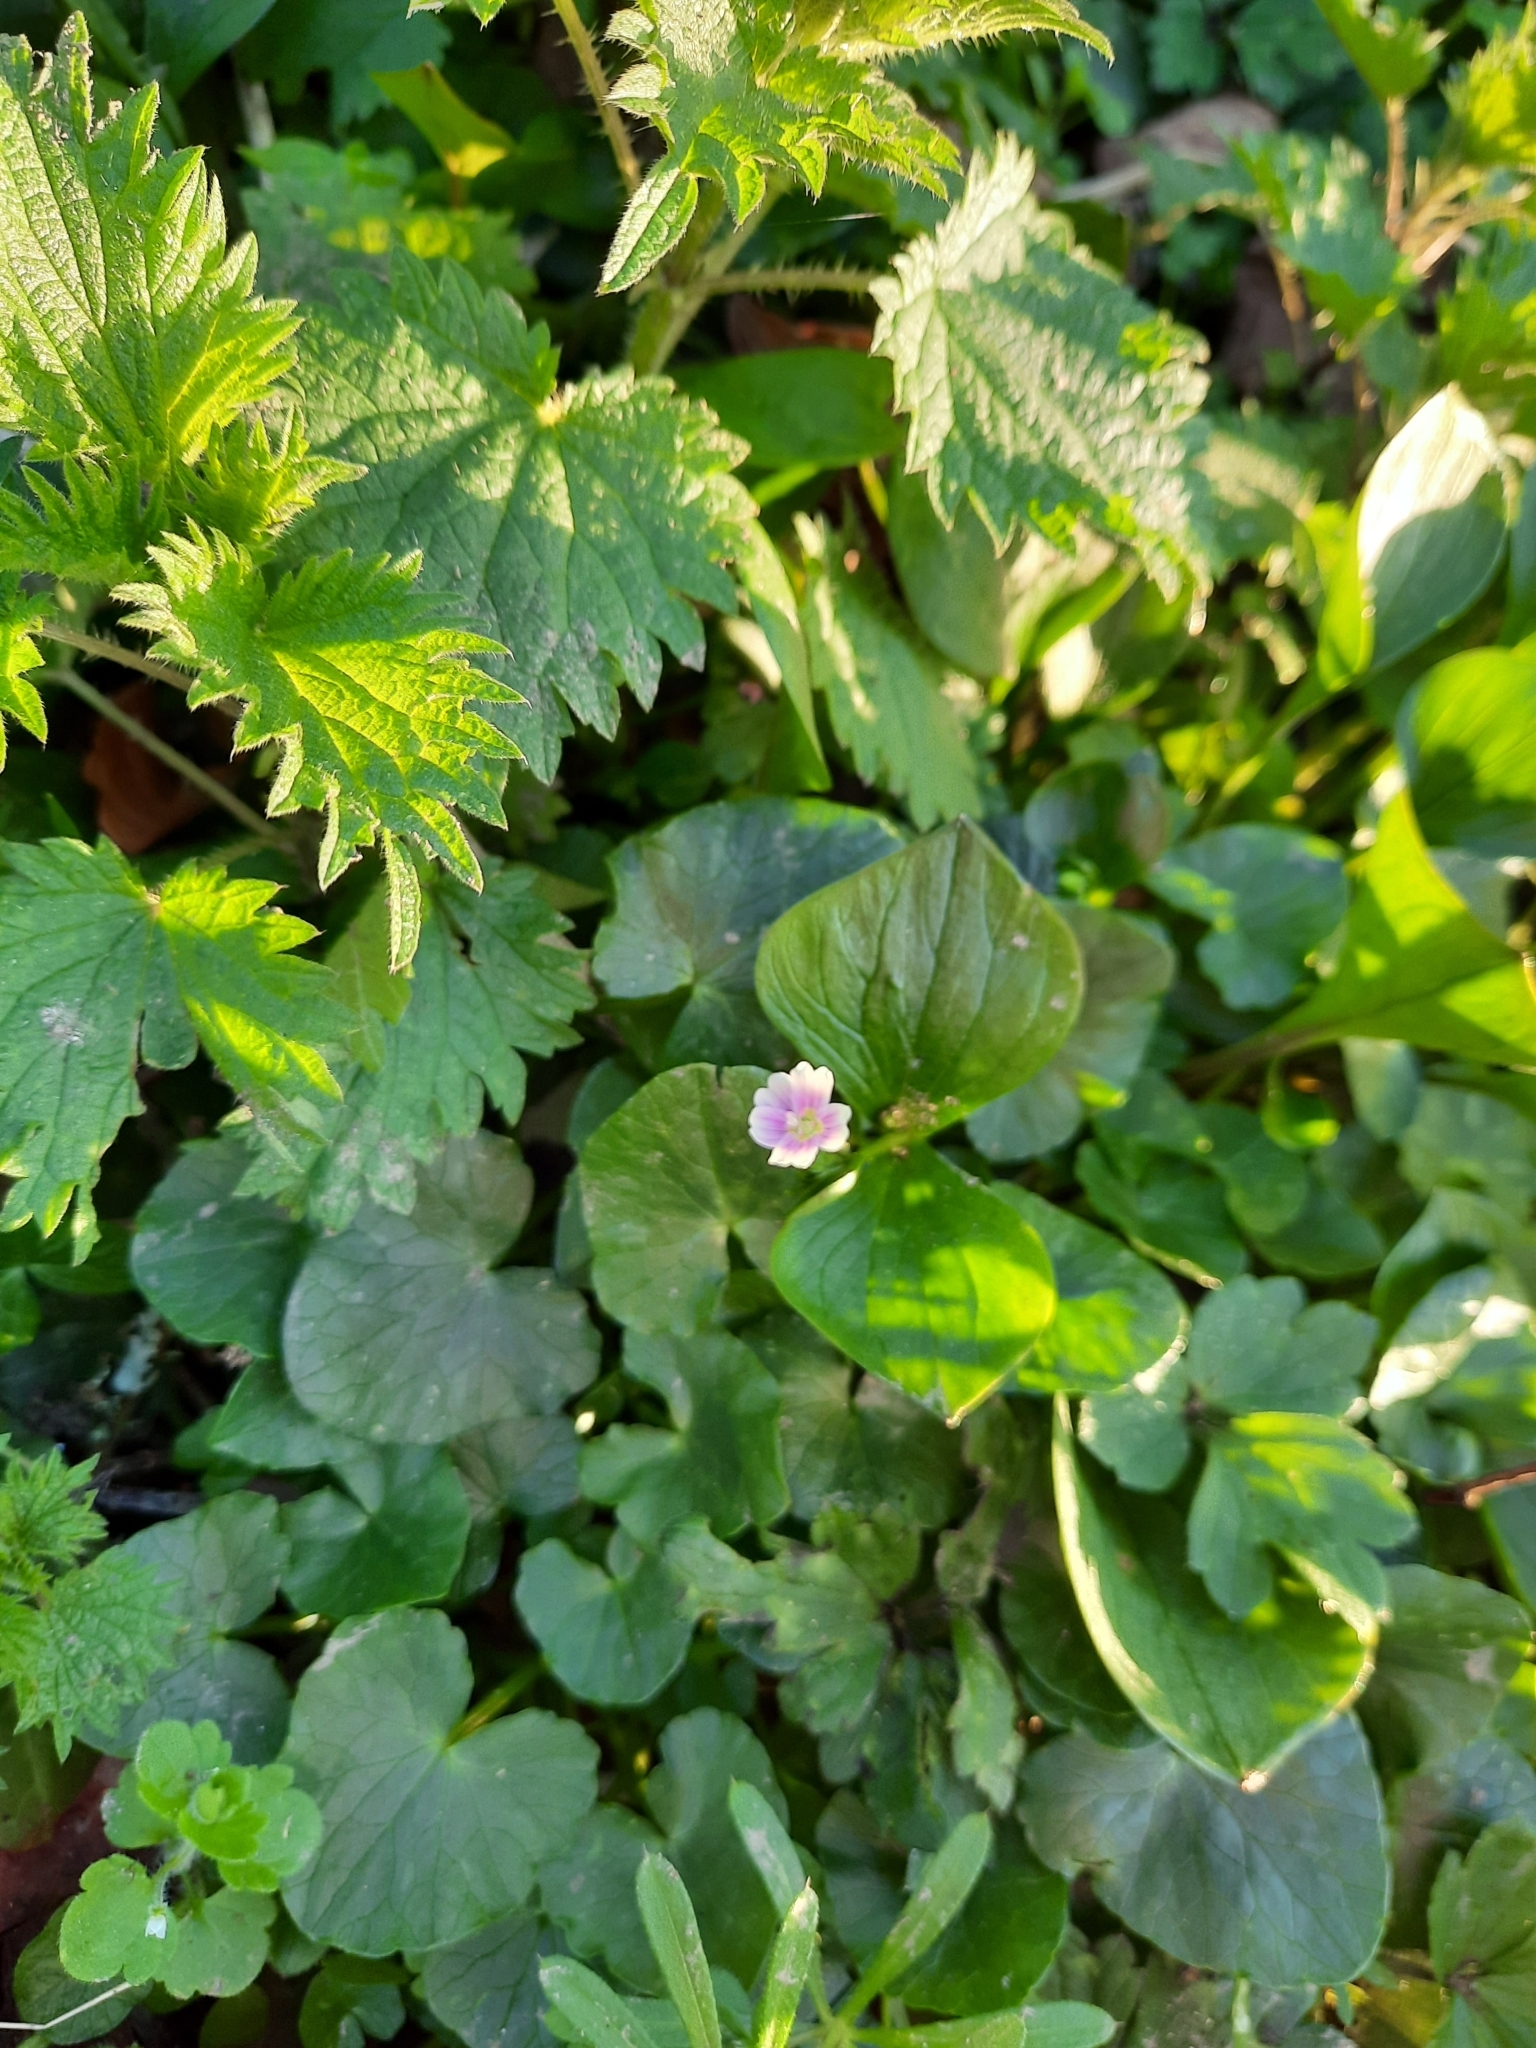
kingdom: Plantae
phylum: Tracheophyta
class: Magnoliopsida
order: Caryophyllales
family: Montiaceae
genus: Claytonia
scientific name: Claytonia sibirica
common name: Pink purslane
